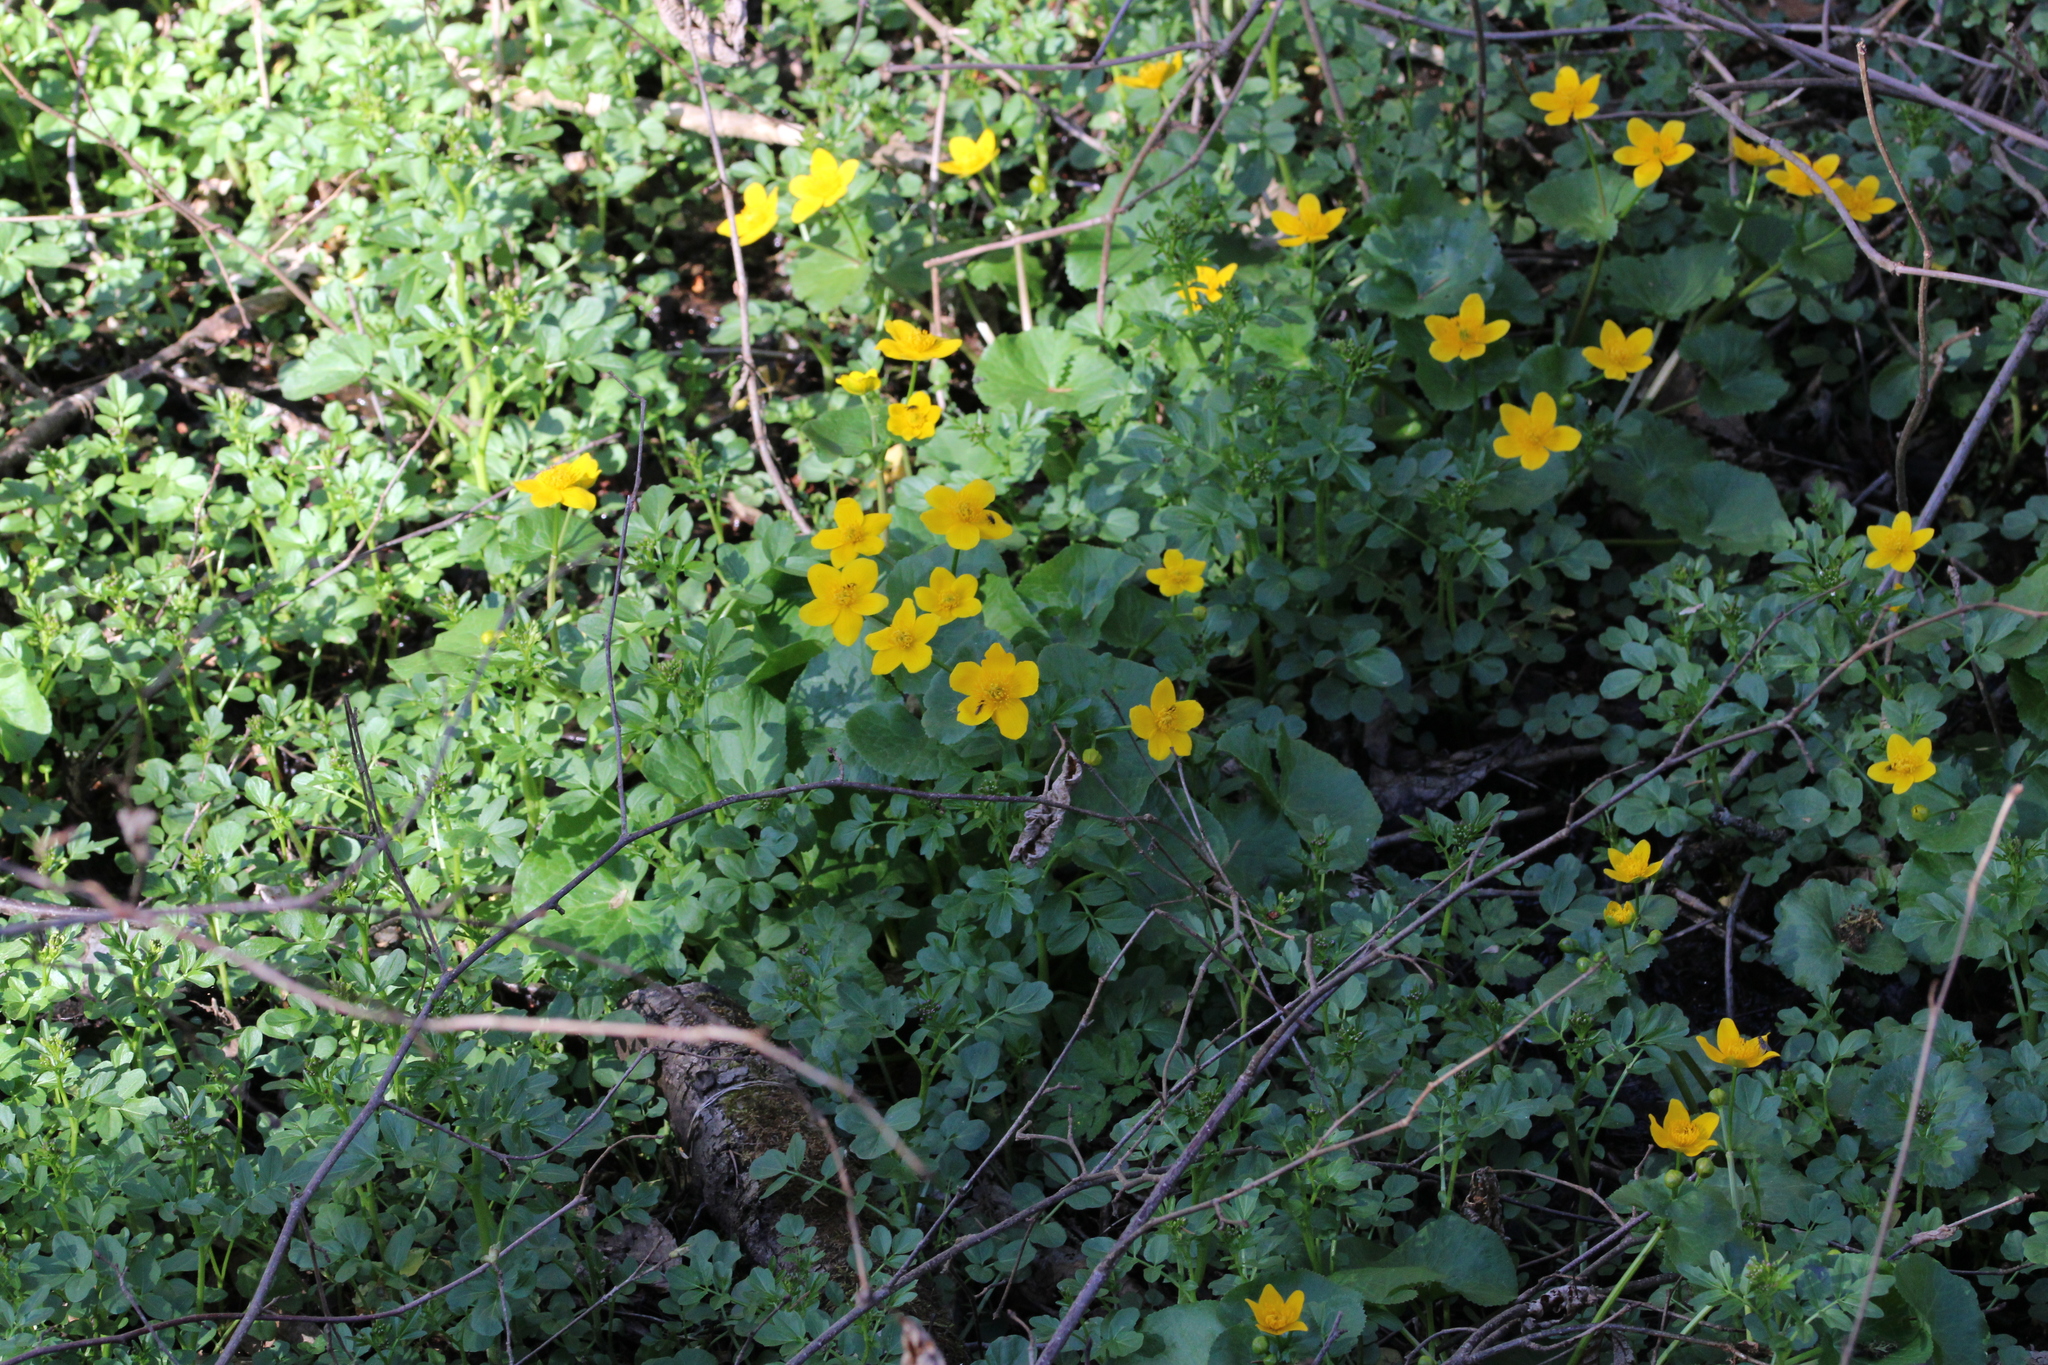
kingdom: Plantae
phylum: Tracheophyta
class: Magnoliopsida
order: Ranunculales
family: Ranunculaceae
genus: Caltha
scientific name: Caltha palustris
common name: Marsh marigold
